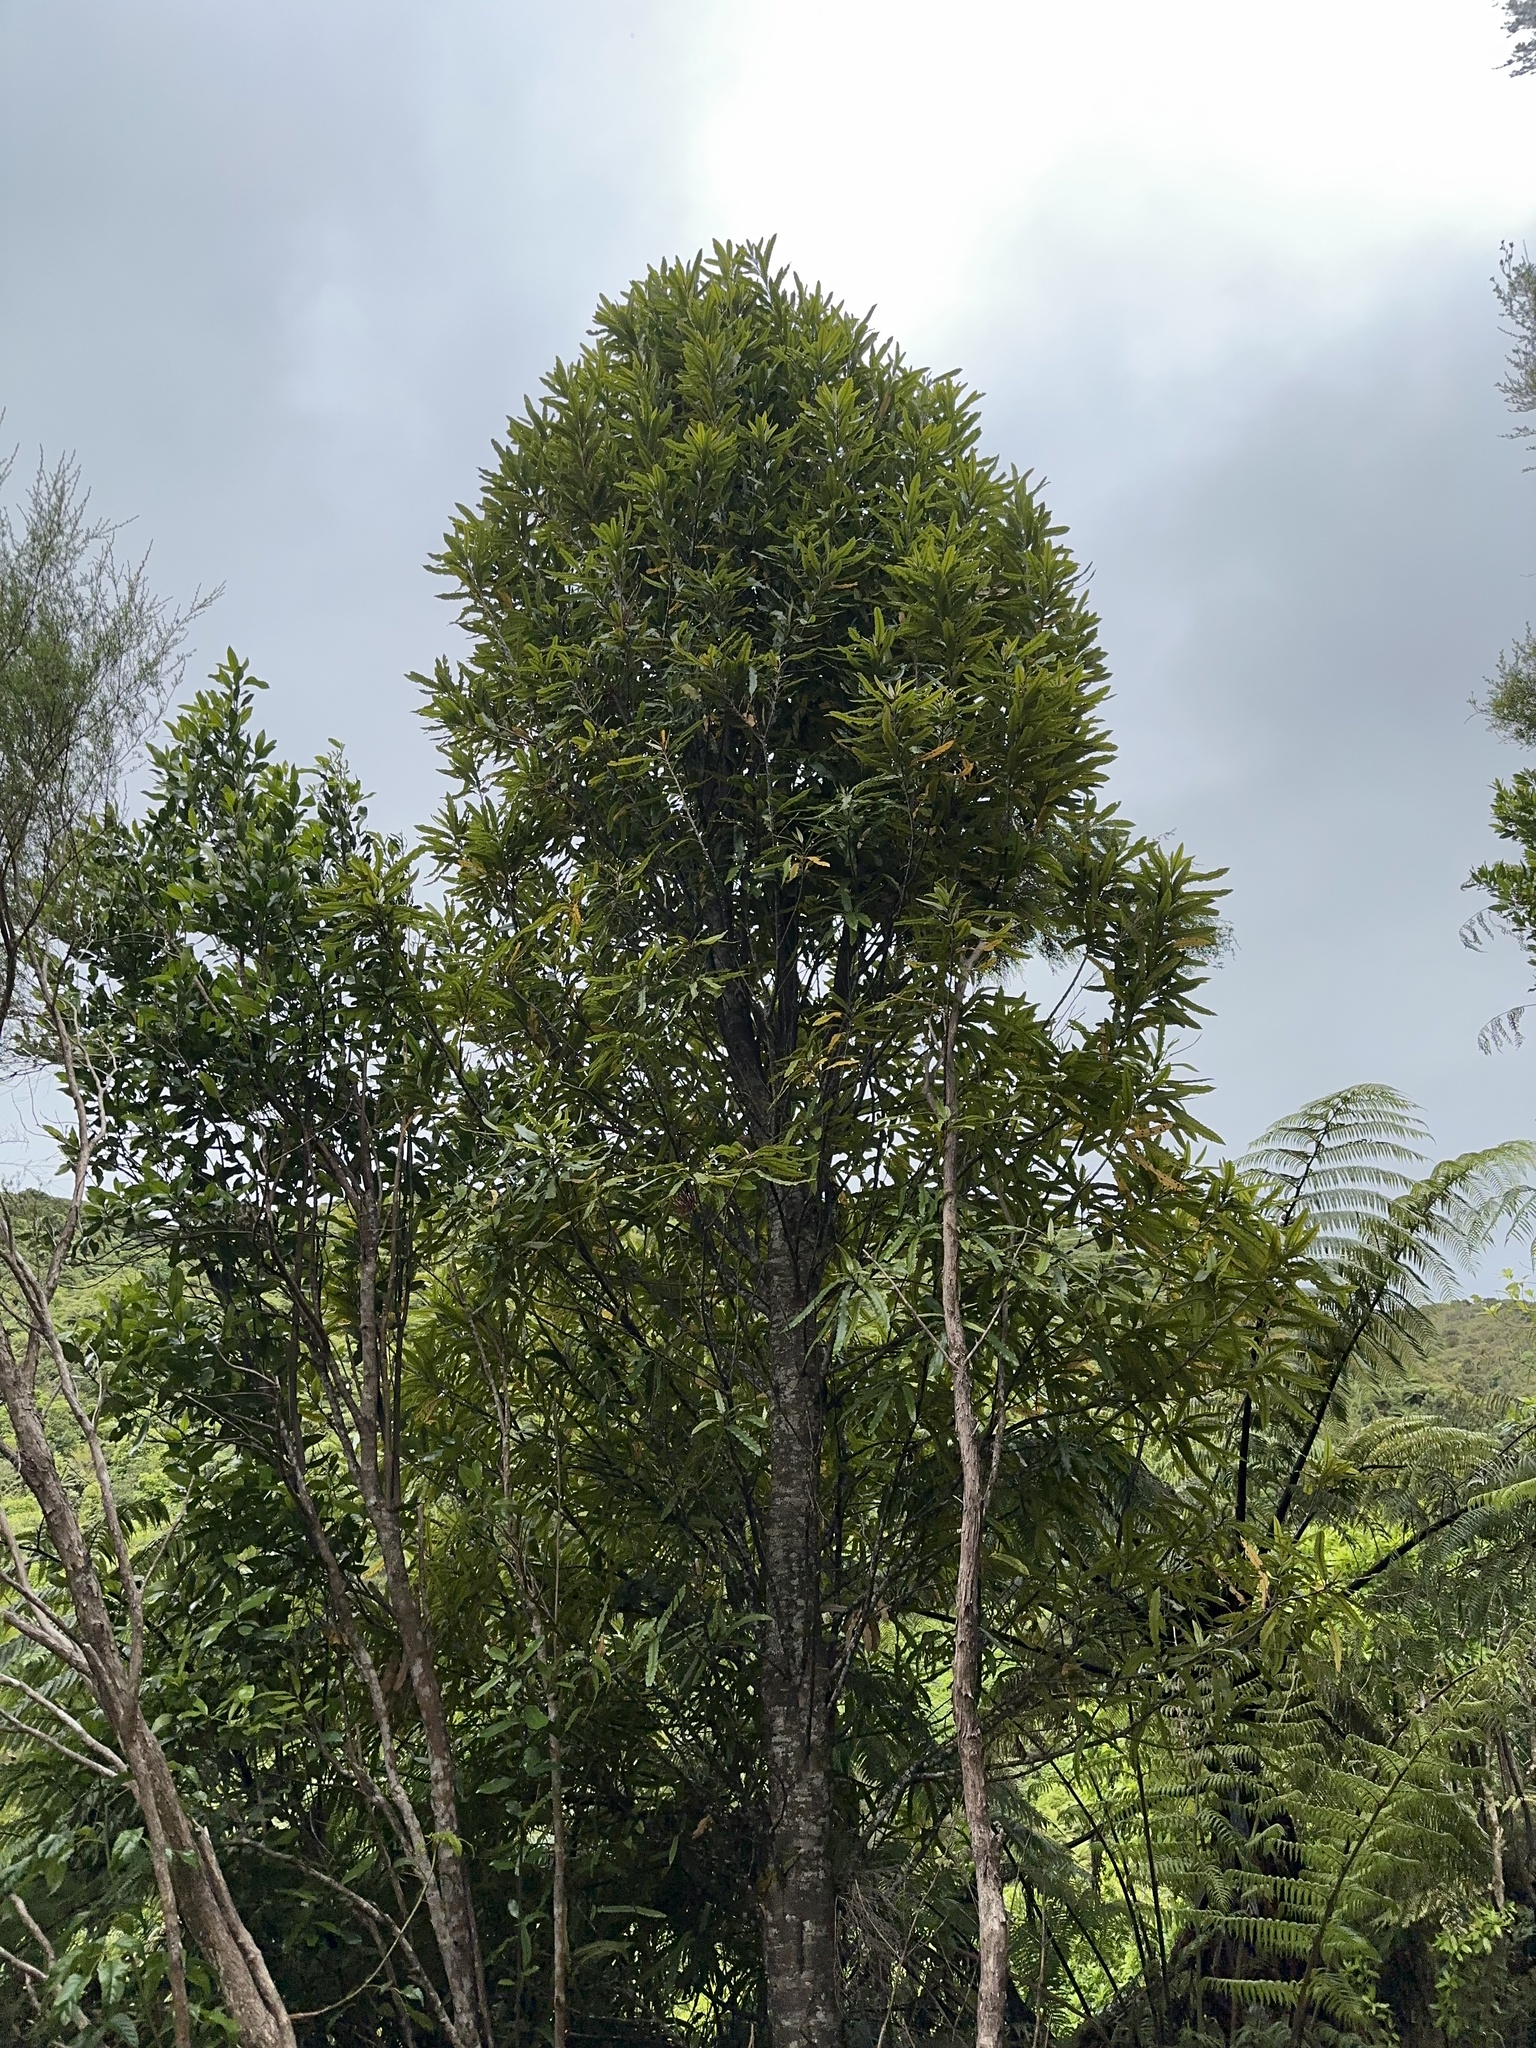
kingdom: Plantae
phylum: Tracheophyta
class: Magnoliopsida
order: Proteales
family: Proteaceae
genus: Knightia
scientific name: Knightia excelsa
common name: New zealand-honeysuckle
